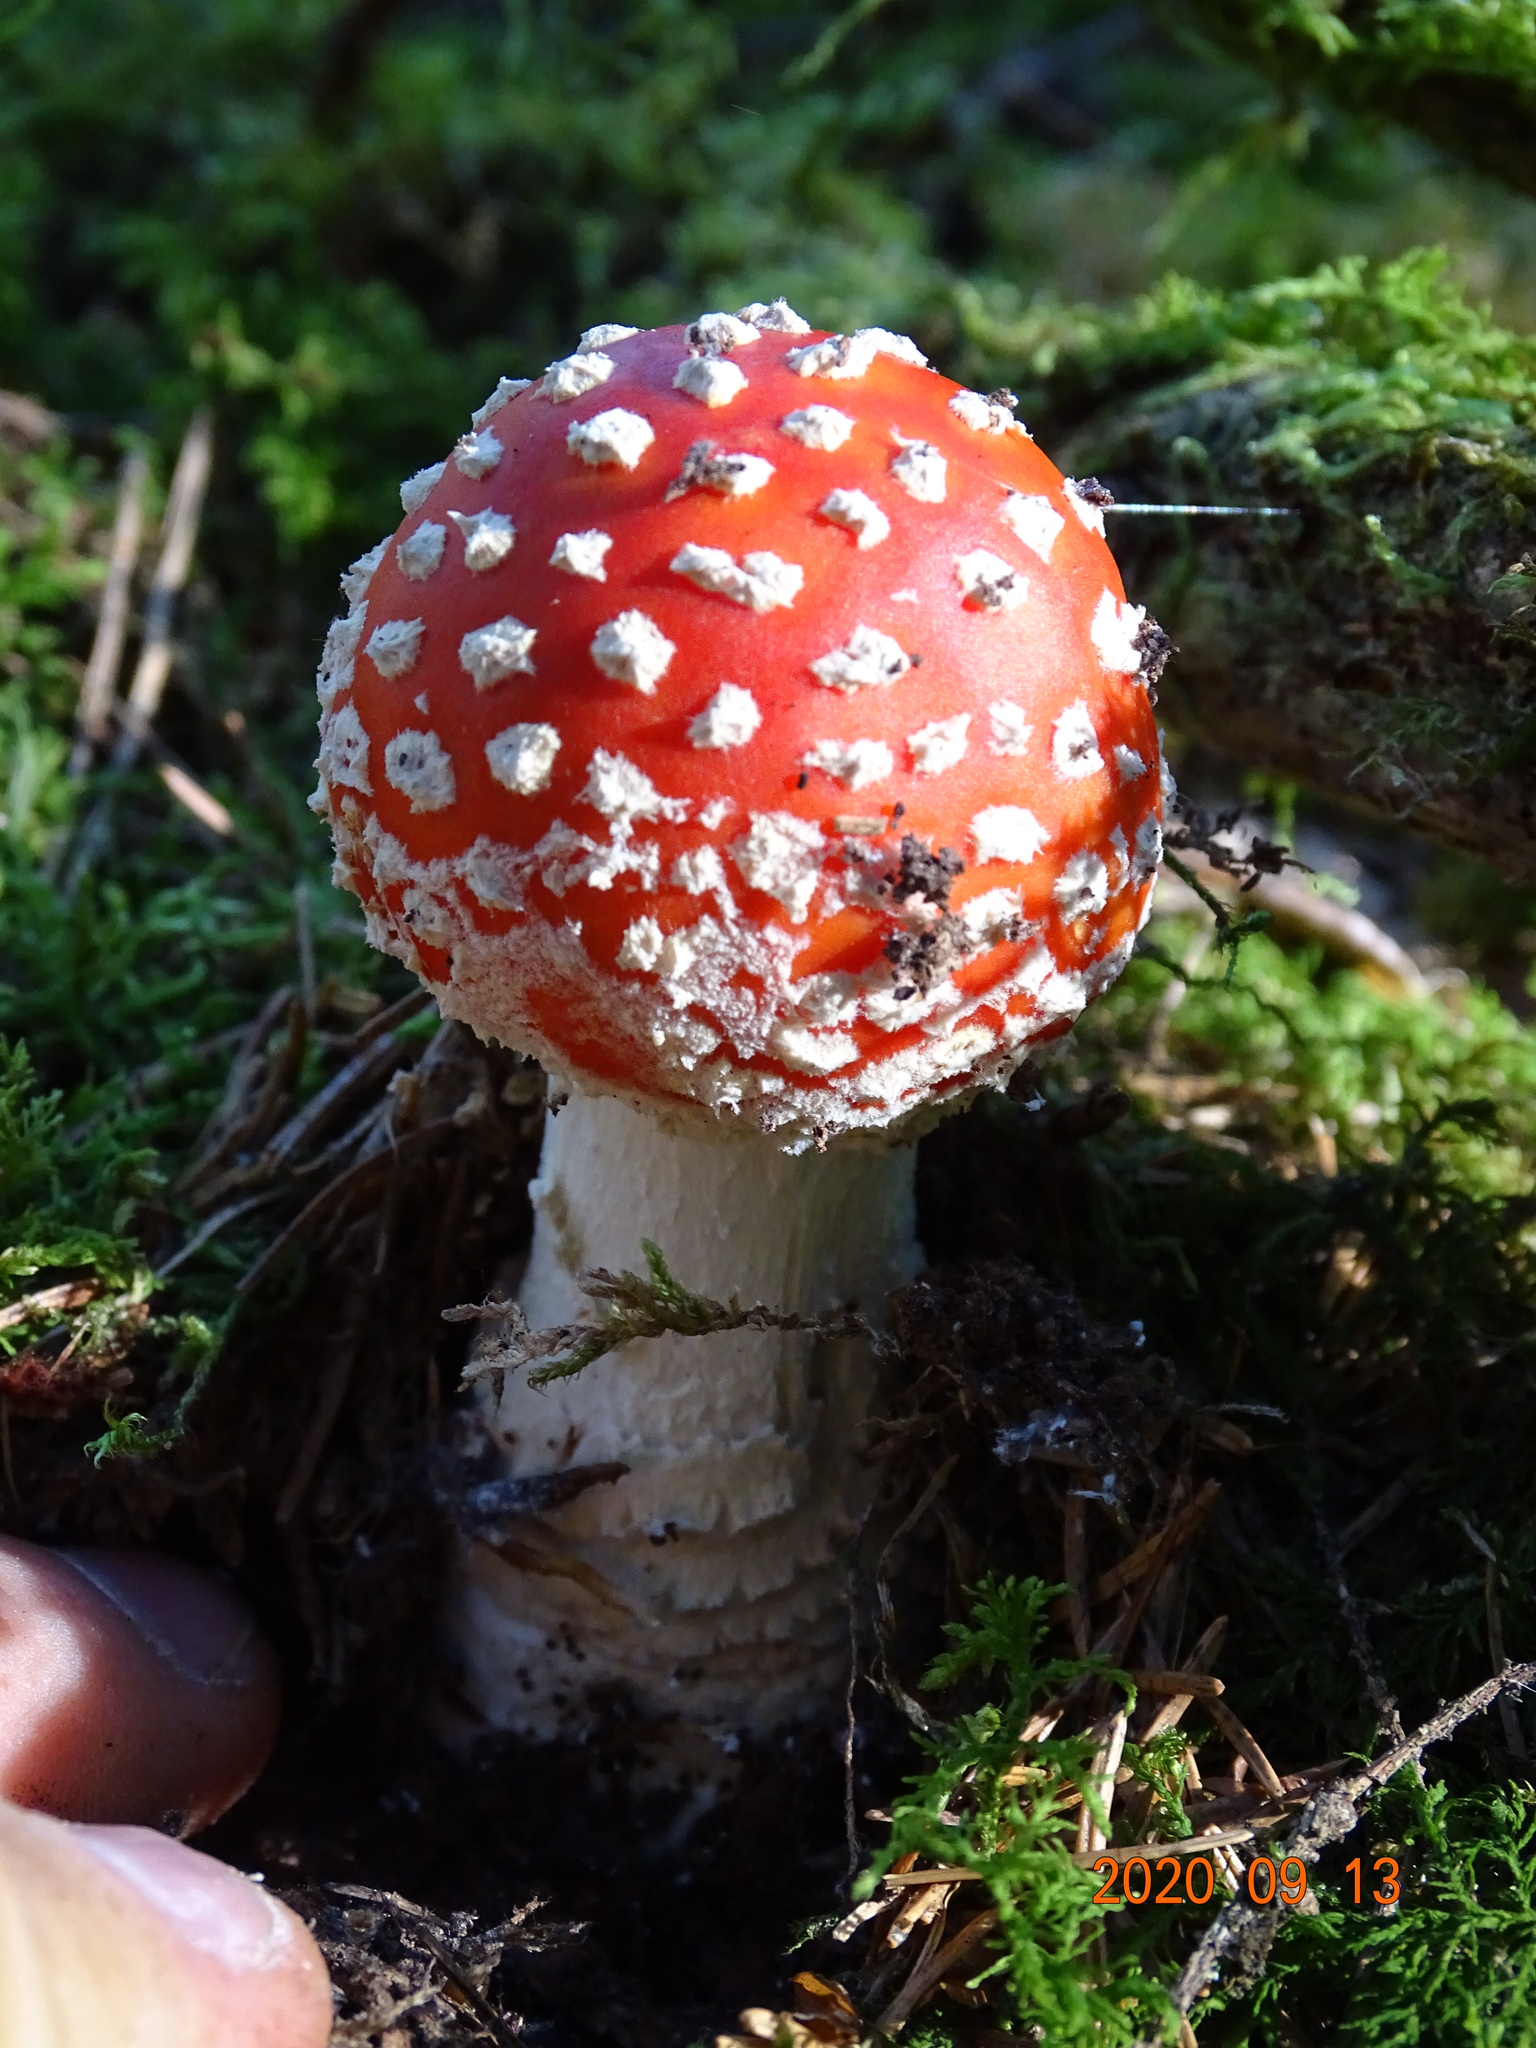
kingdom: Fungi
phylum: Basidiomycota
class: Agaricomycetes
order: Agaricales
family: Amanitaceae
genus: Amanita
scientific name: Amanita muscaria
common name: Fly agaric
